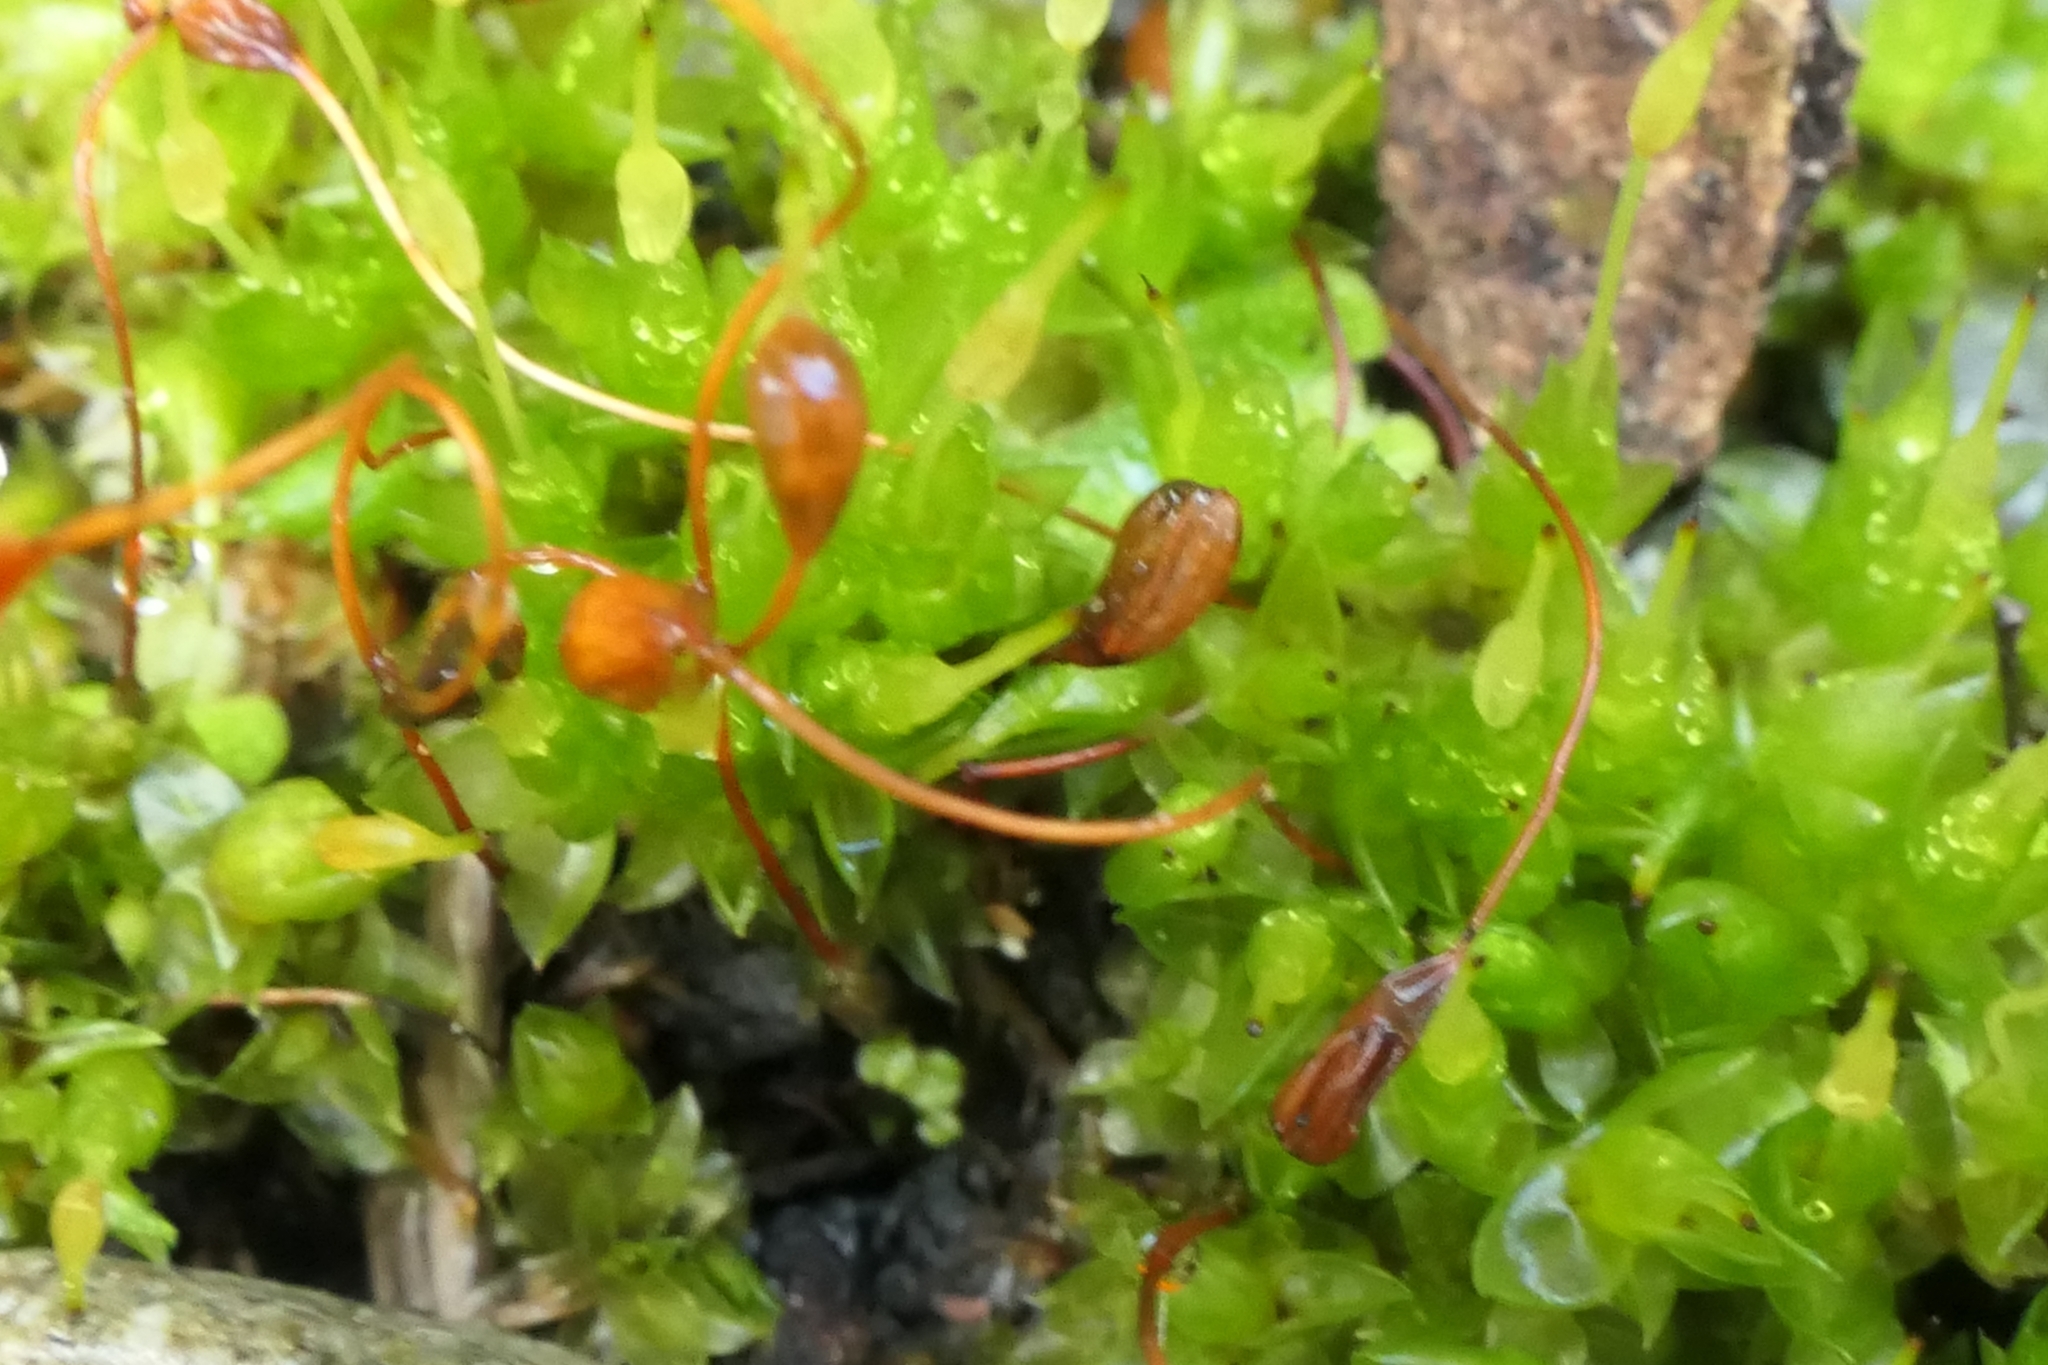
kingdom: Plantae
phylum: Bryophyta
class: Bryopsida
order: Funariales
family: Funariaceae
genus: Funaria
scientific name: Funaria hygrometrica
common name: Common cord moss
